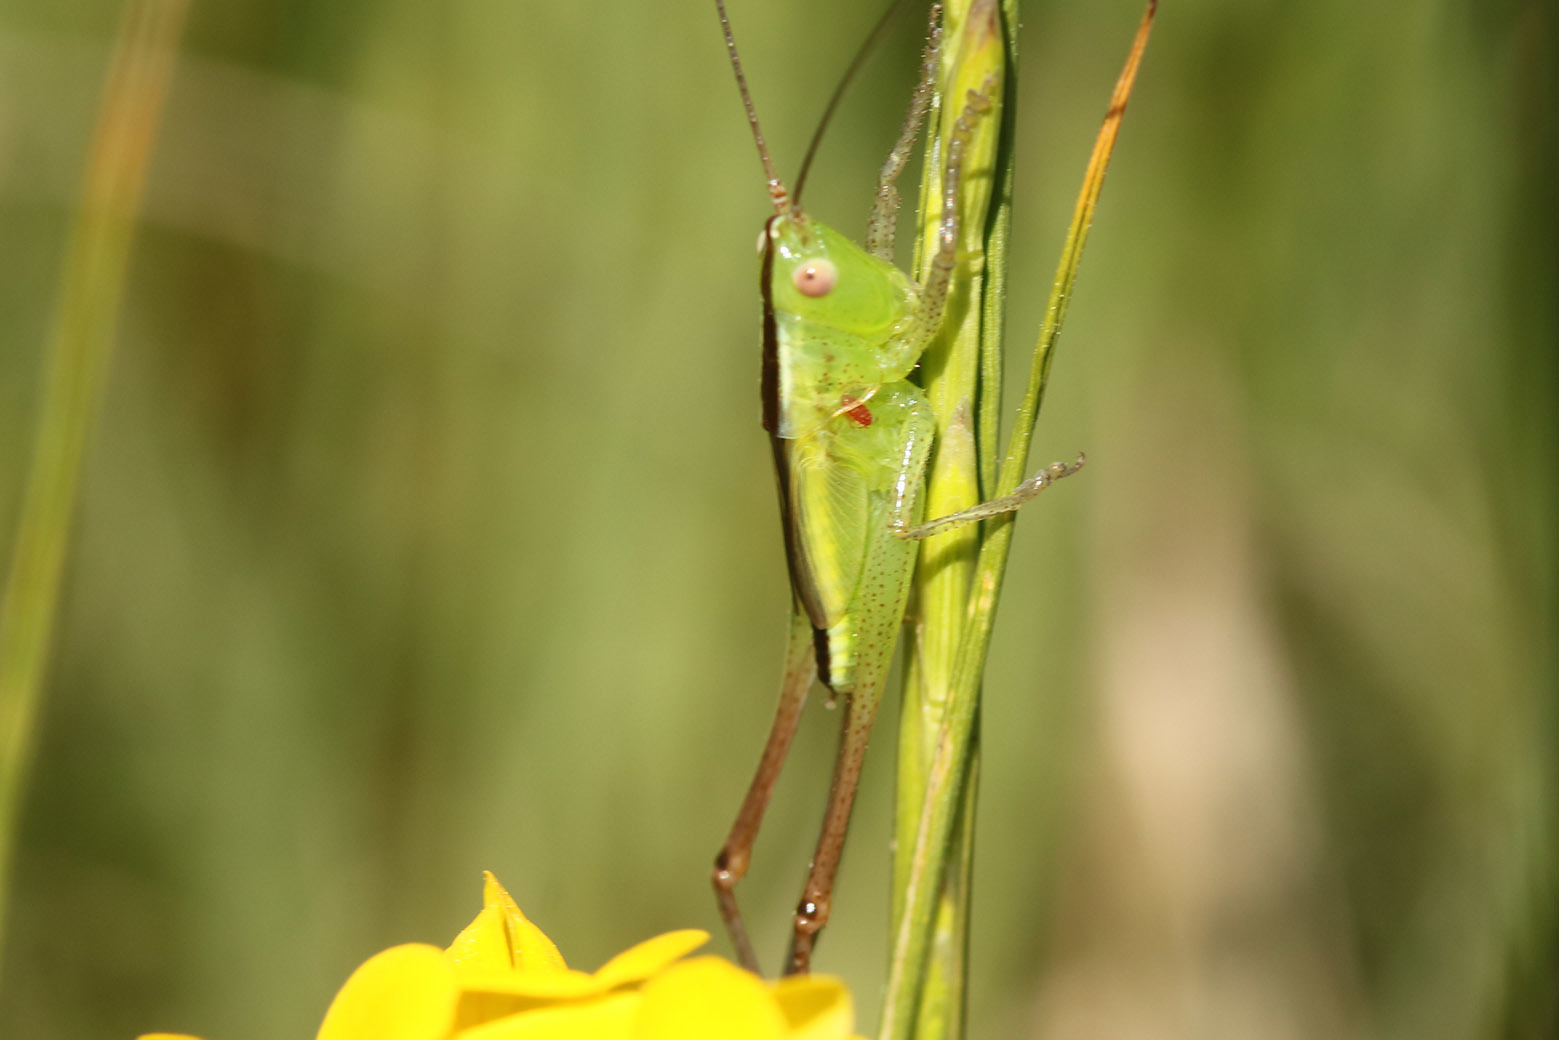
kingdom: Animalia
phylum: Arthropoda
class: Insecta
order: Orthoptera
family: Tettigoniidae
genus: Conocephalus
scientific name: Conocephalus longipes
